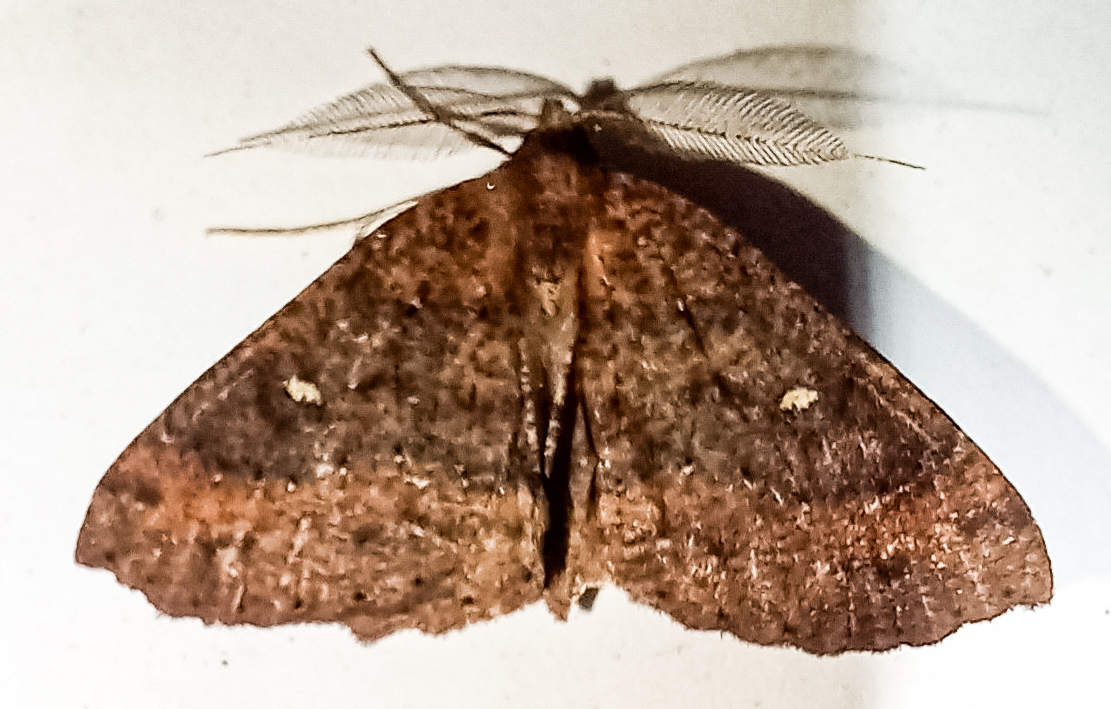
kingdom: Animalia
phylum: Arthropoda
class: Insecta
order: Lepidoptera
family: Geometridae
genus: Cleora
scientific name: Cleora scriptaria
